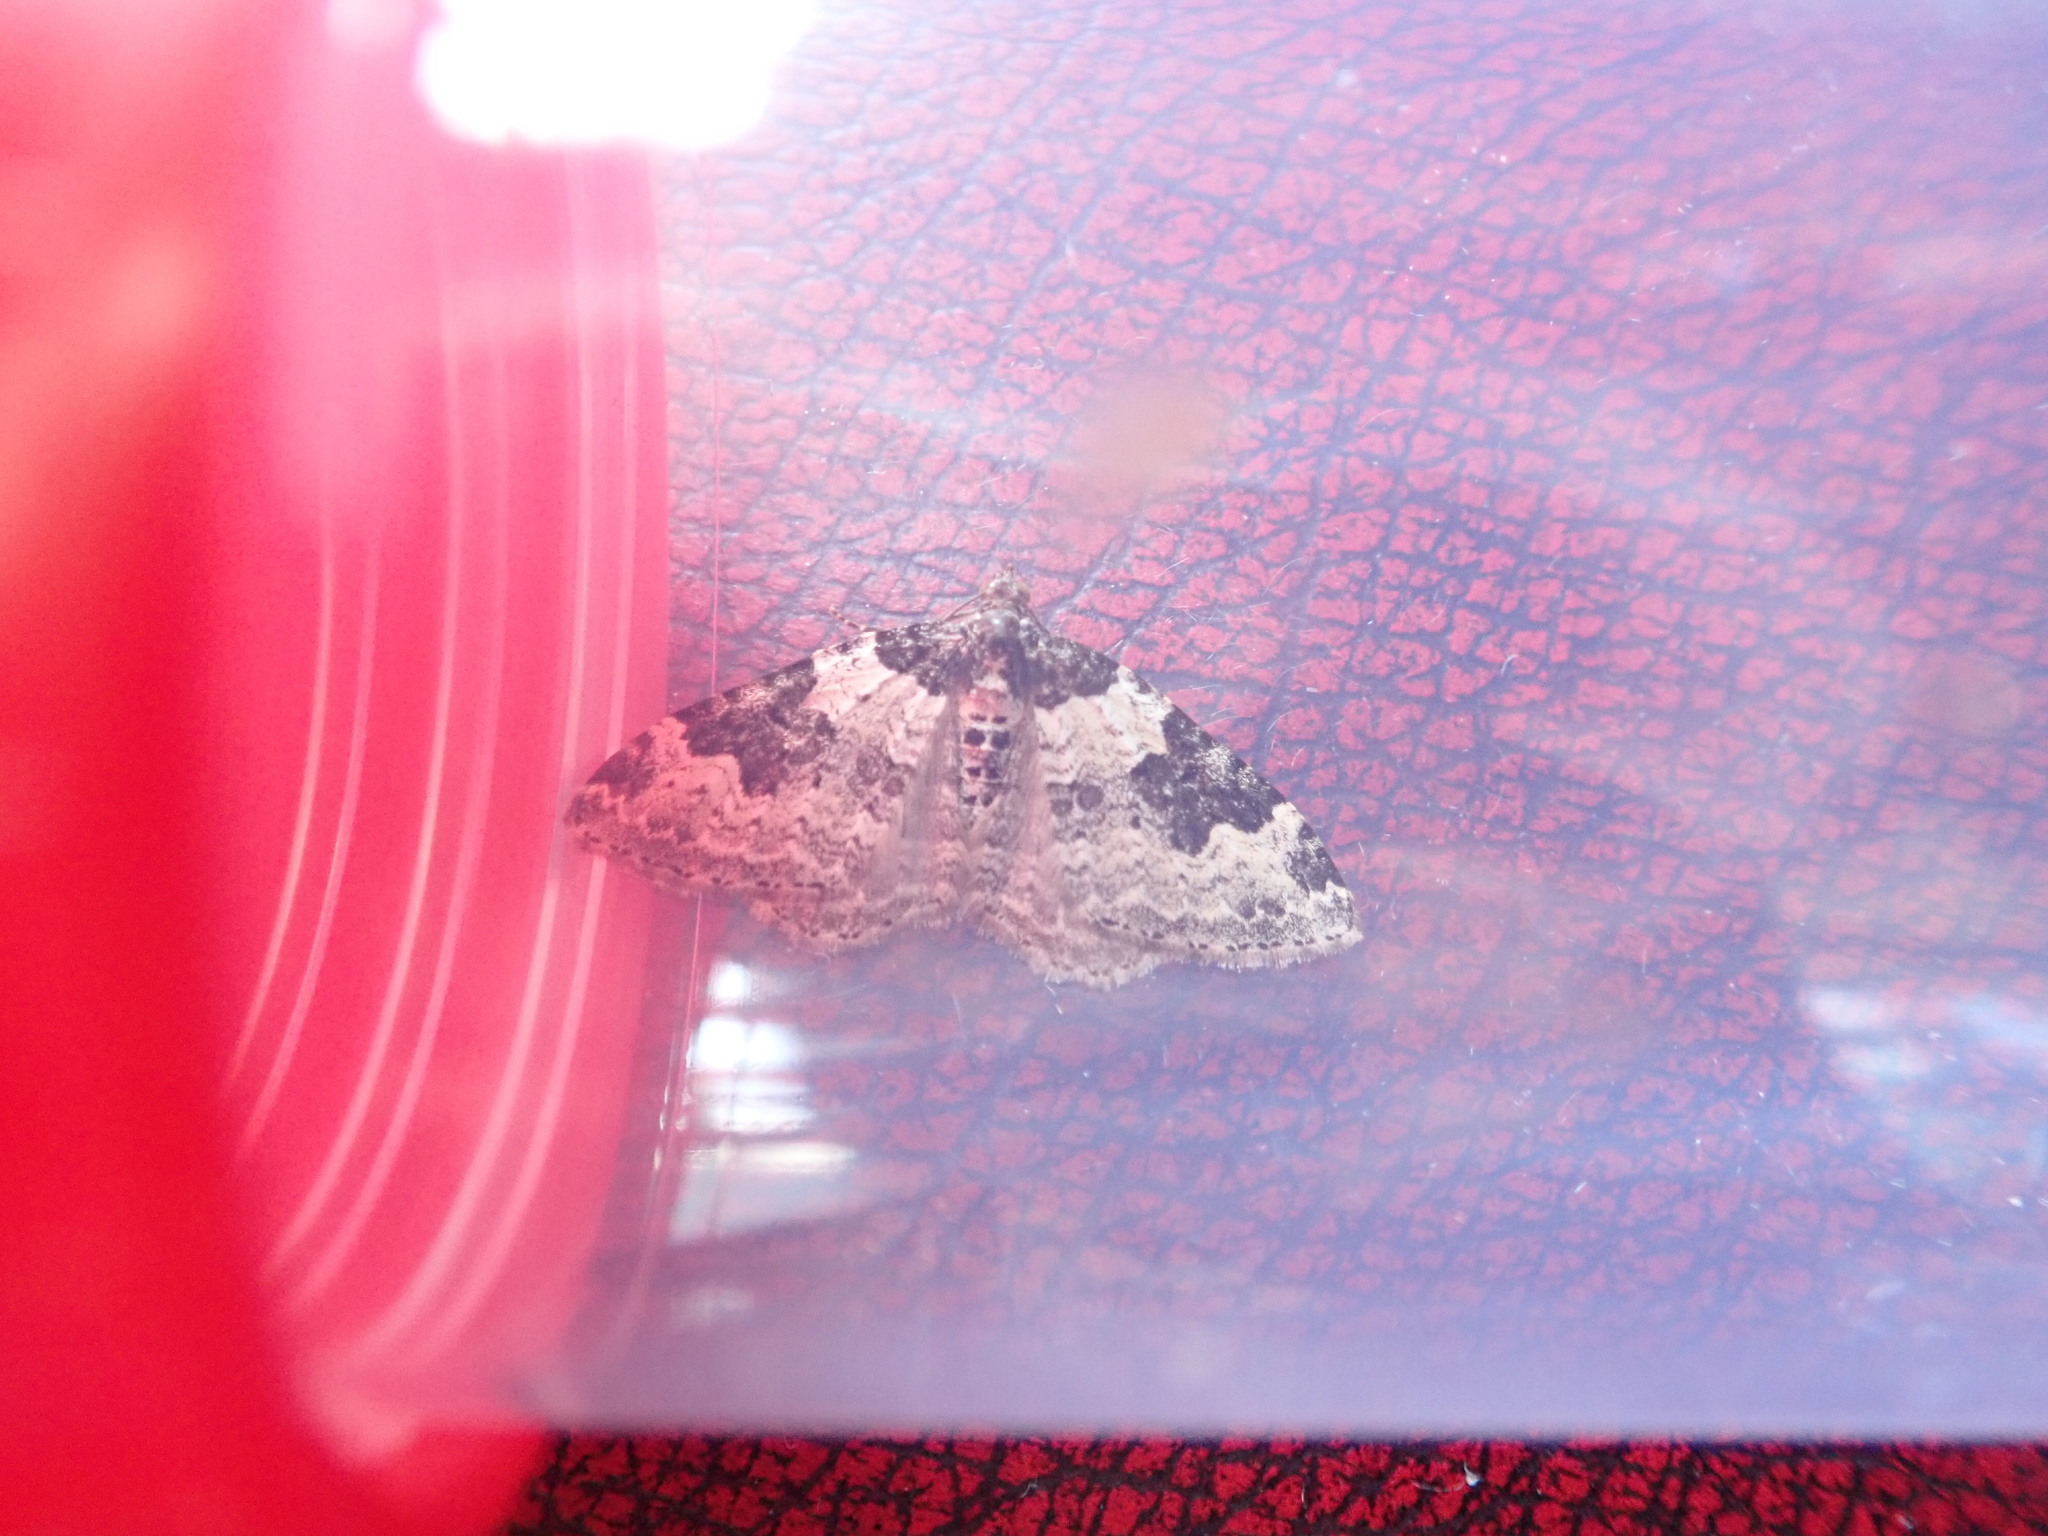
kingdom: Animalia
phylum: Arthropoda
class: Insecta
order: Lepidoptera
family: Geometridae
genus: Xanthorhoe
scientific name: Xanthorhoe fluctuata
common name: Garden carpet
